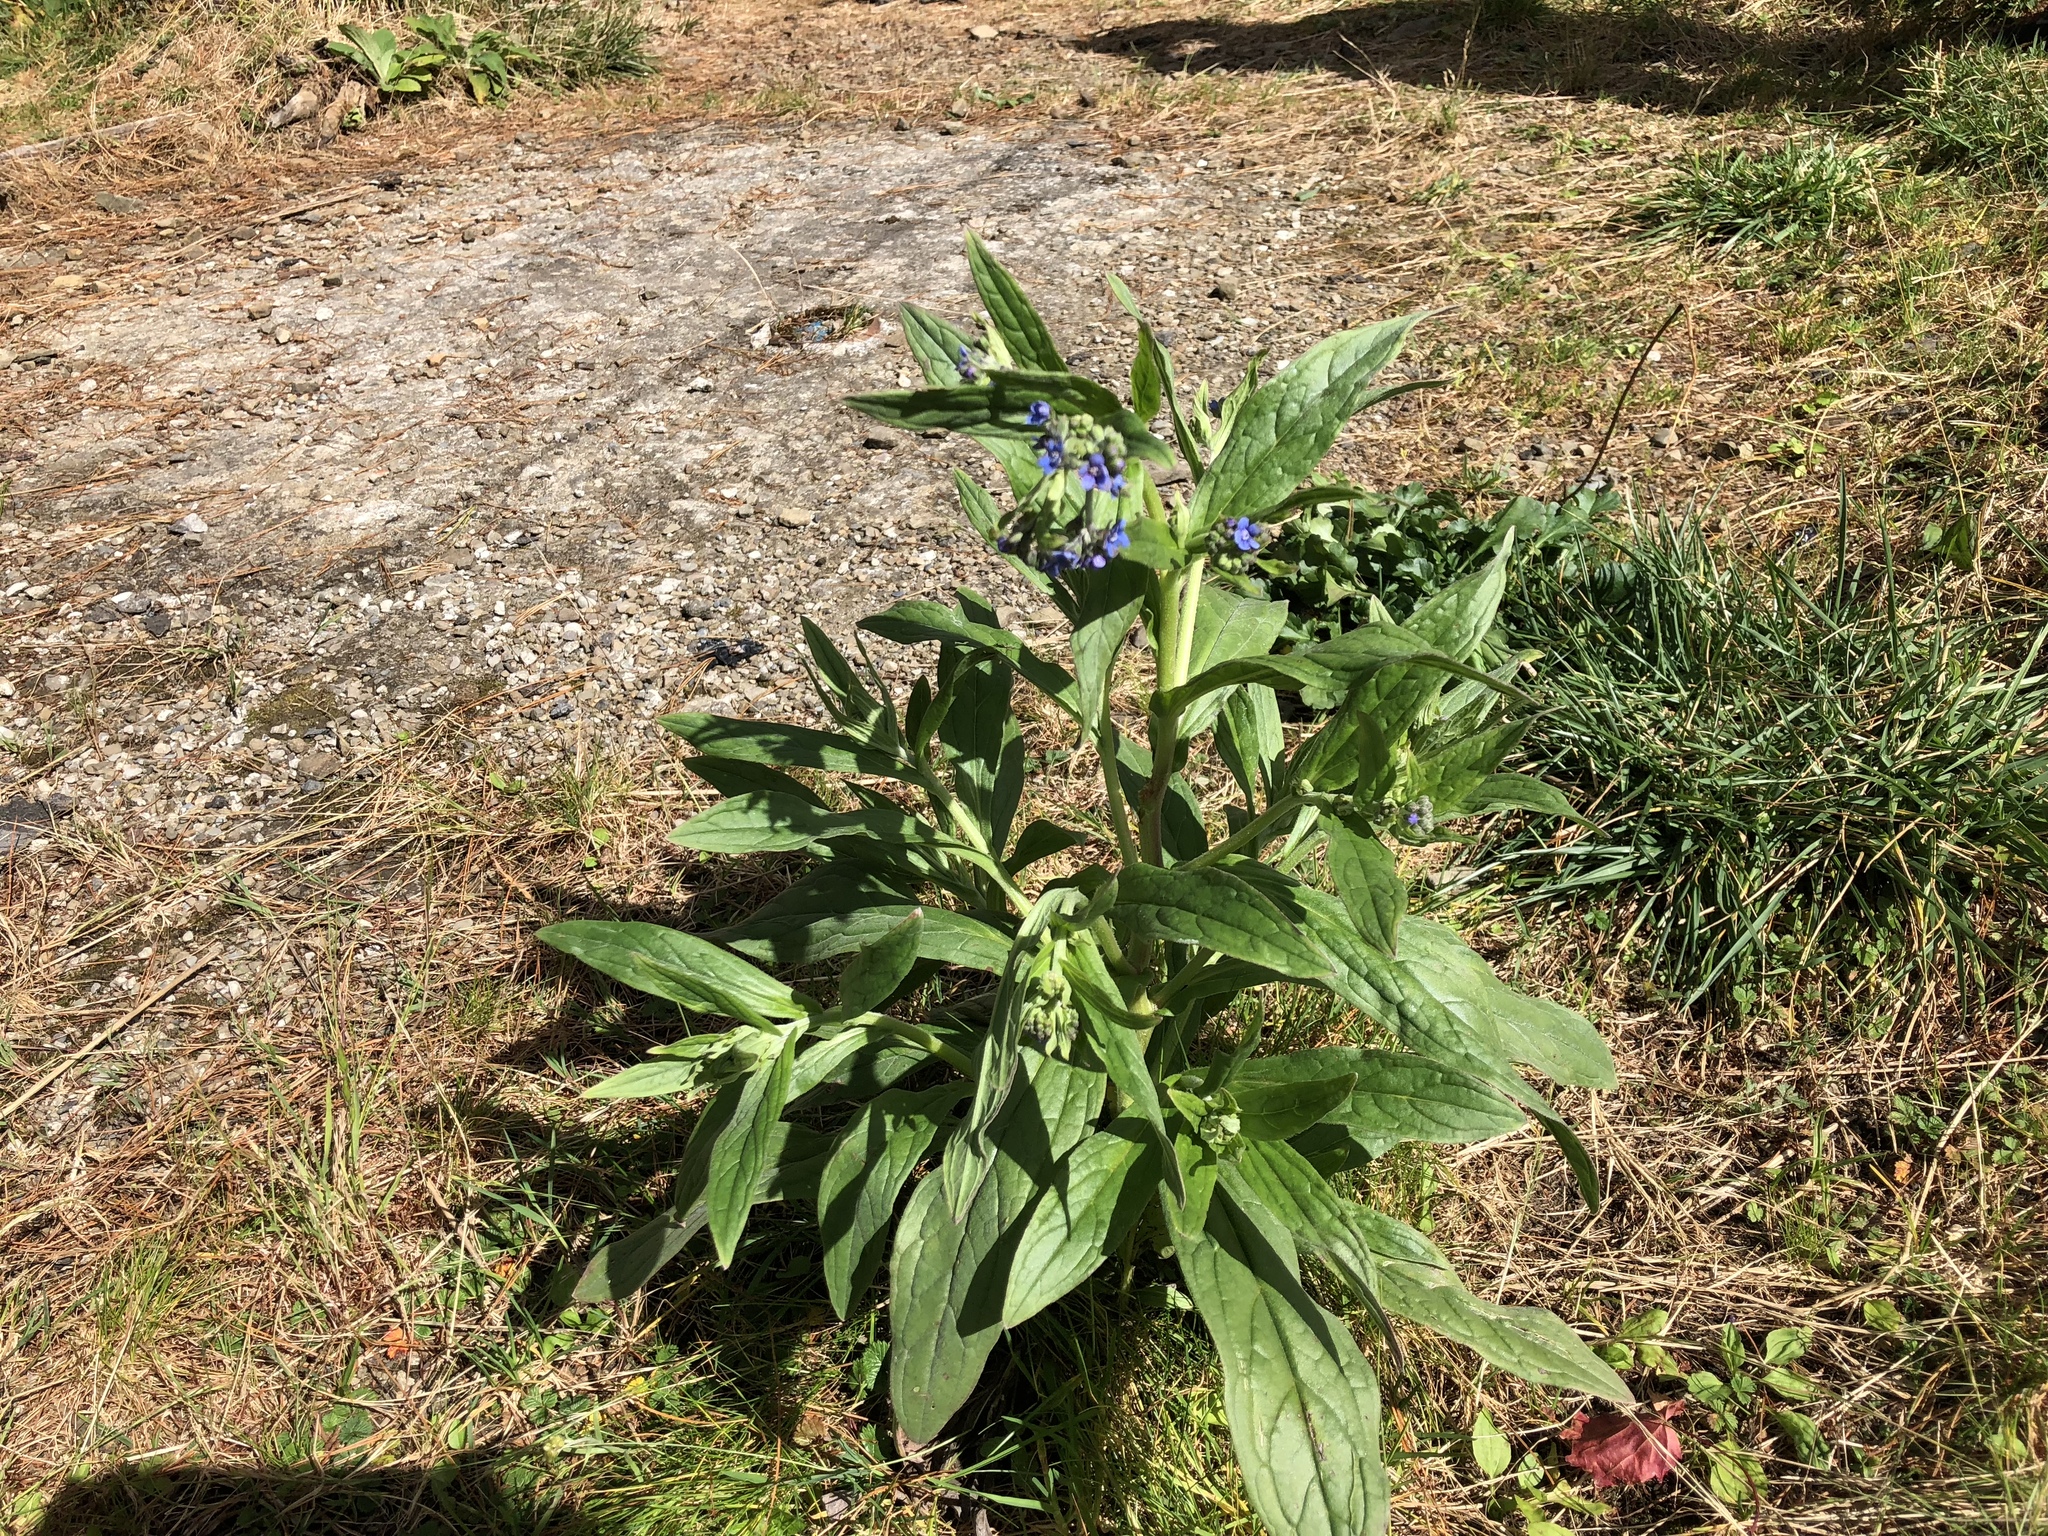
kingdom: Plantae
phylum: Tracheophyta
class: Magnoliopsida
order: Boraginales
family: Boraginaceae
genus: Cynoglossum
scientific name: Cynoglossum zeylanicum
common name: Ceylon hound's tongue
